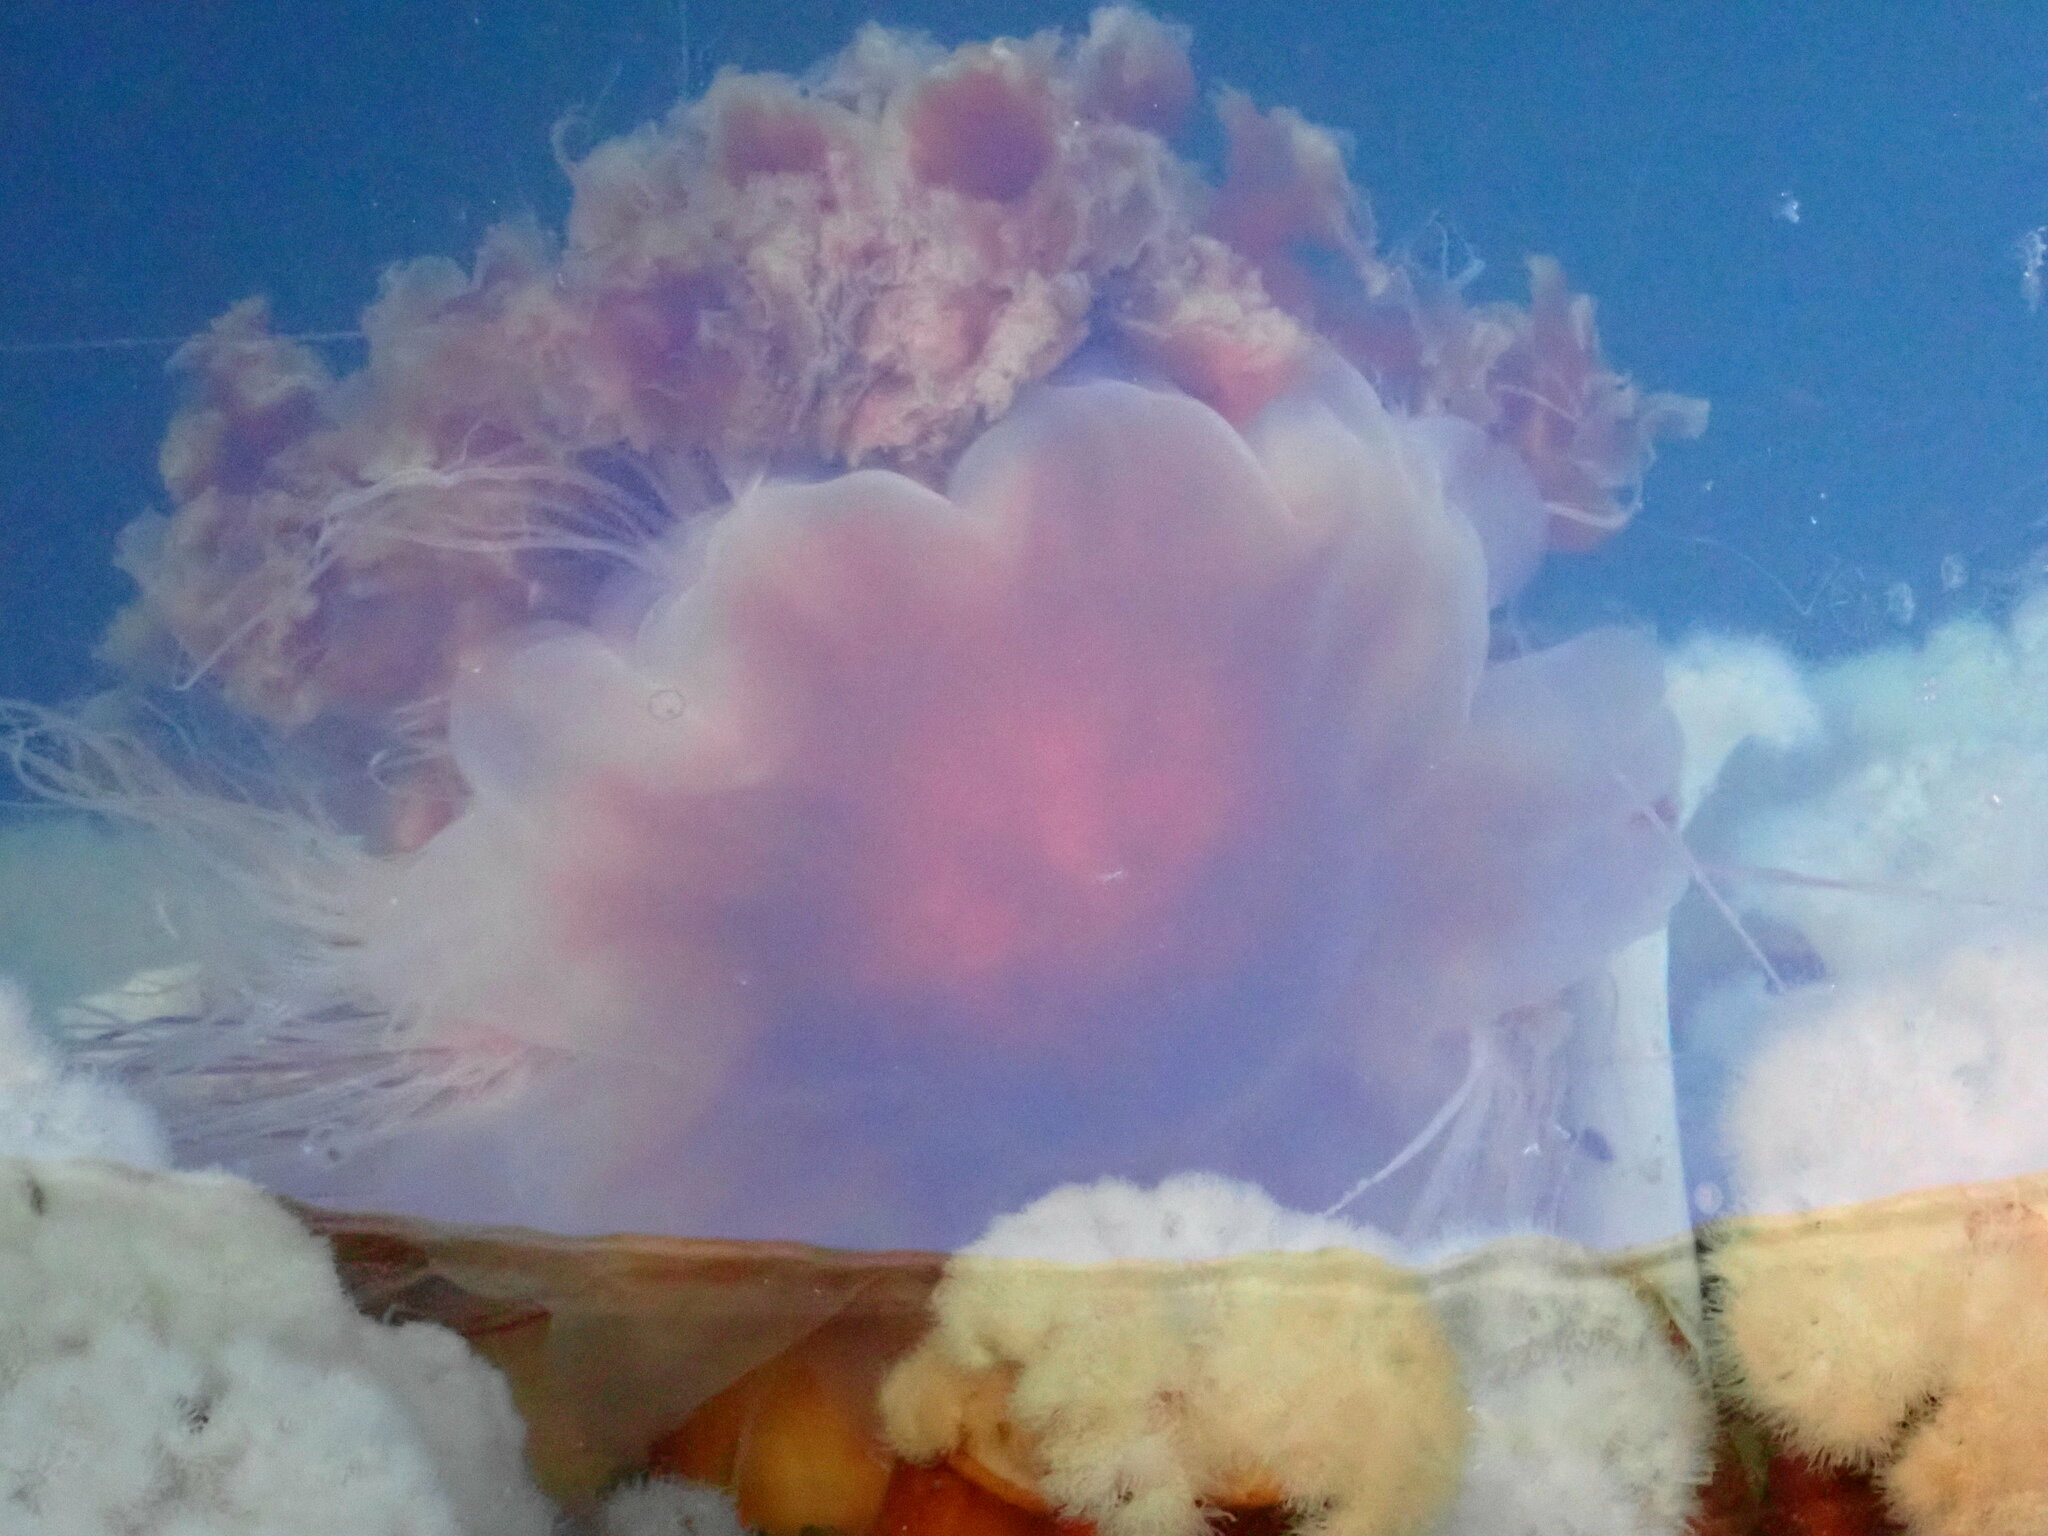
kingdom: Animalia
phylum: Cnidaria
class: Scyphozoa
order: Semaeostomeae
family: Cyaneidae
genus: Cyanea
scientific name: Cyanea ferruginea
